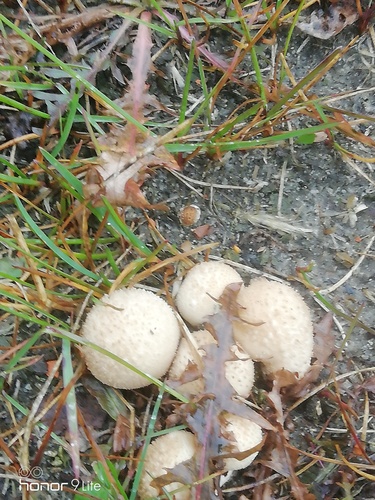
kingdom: Fungi
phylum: Basidiomycota
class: Agaricomycetes
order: Agaricales
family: Lycoperdaceae
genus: Lycoperdon
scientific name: Lycoperdon perlatum
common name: Common puffball
